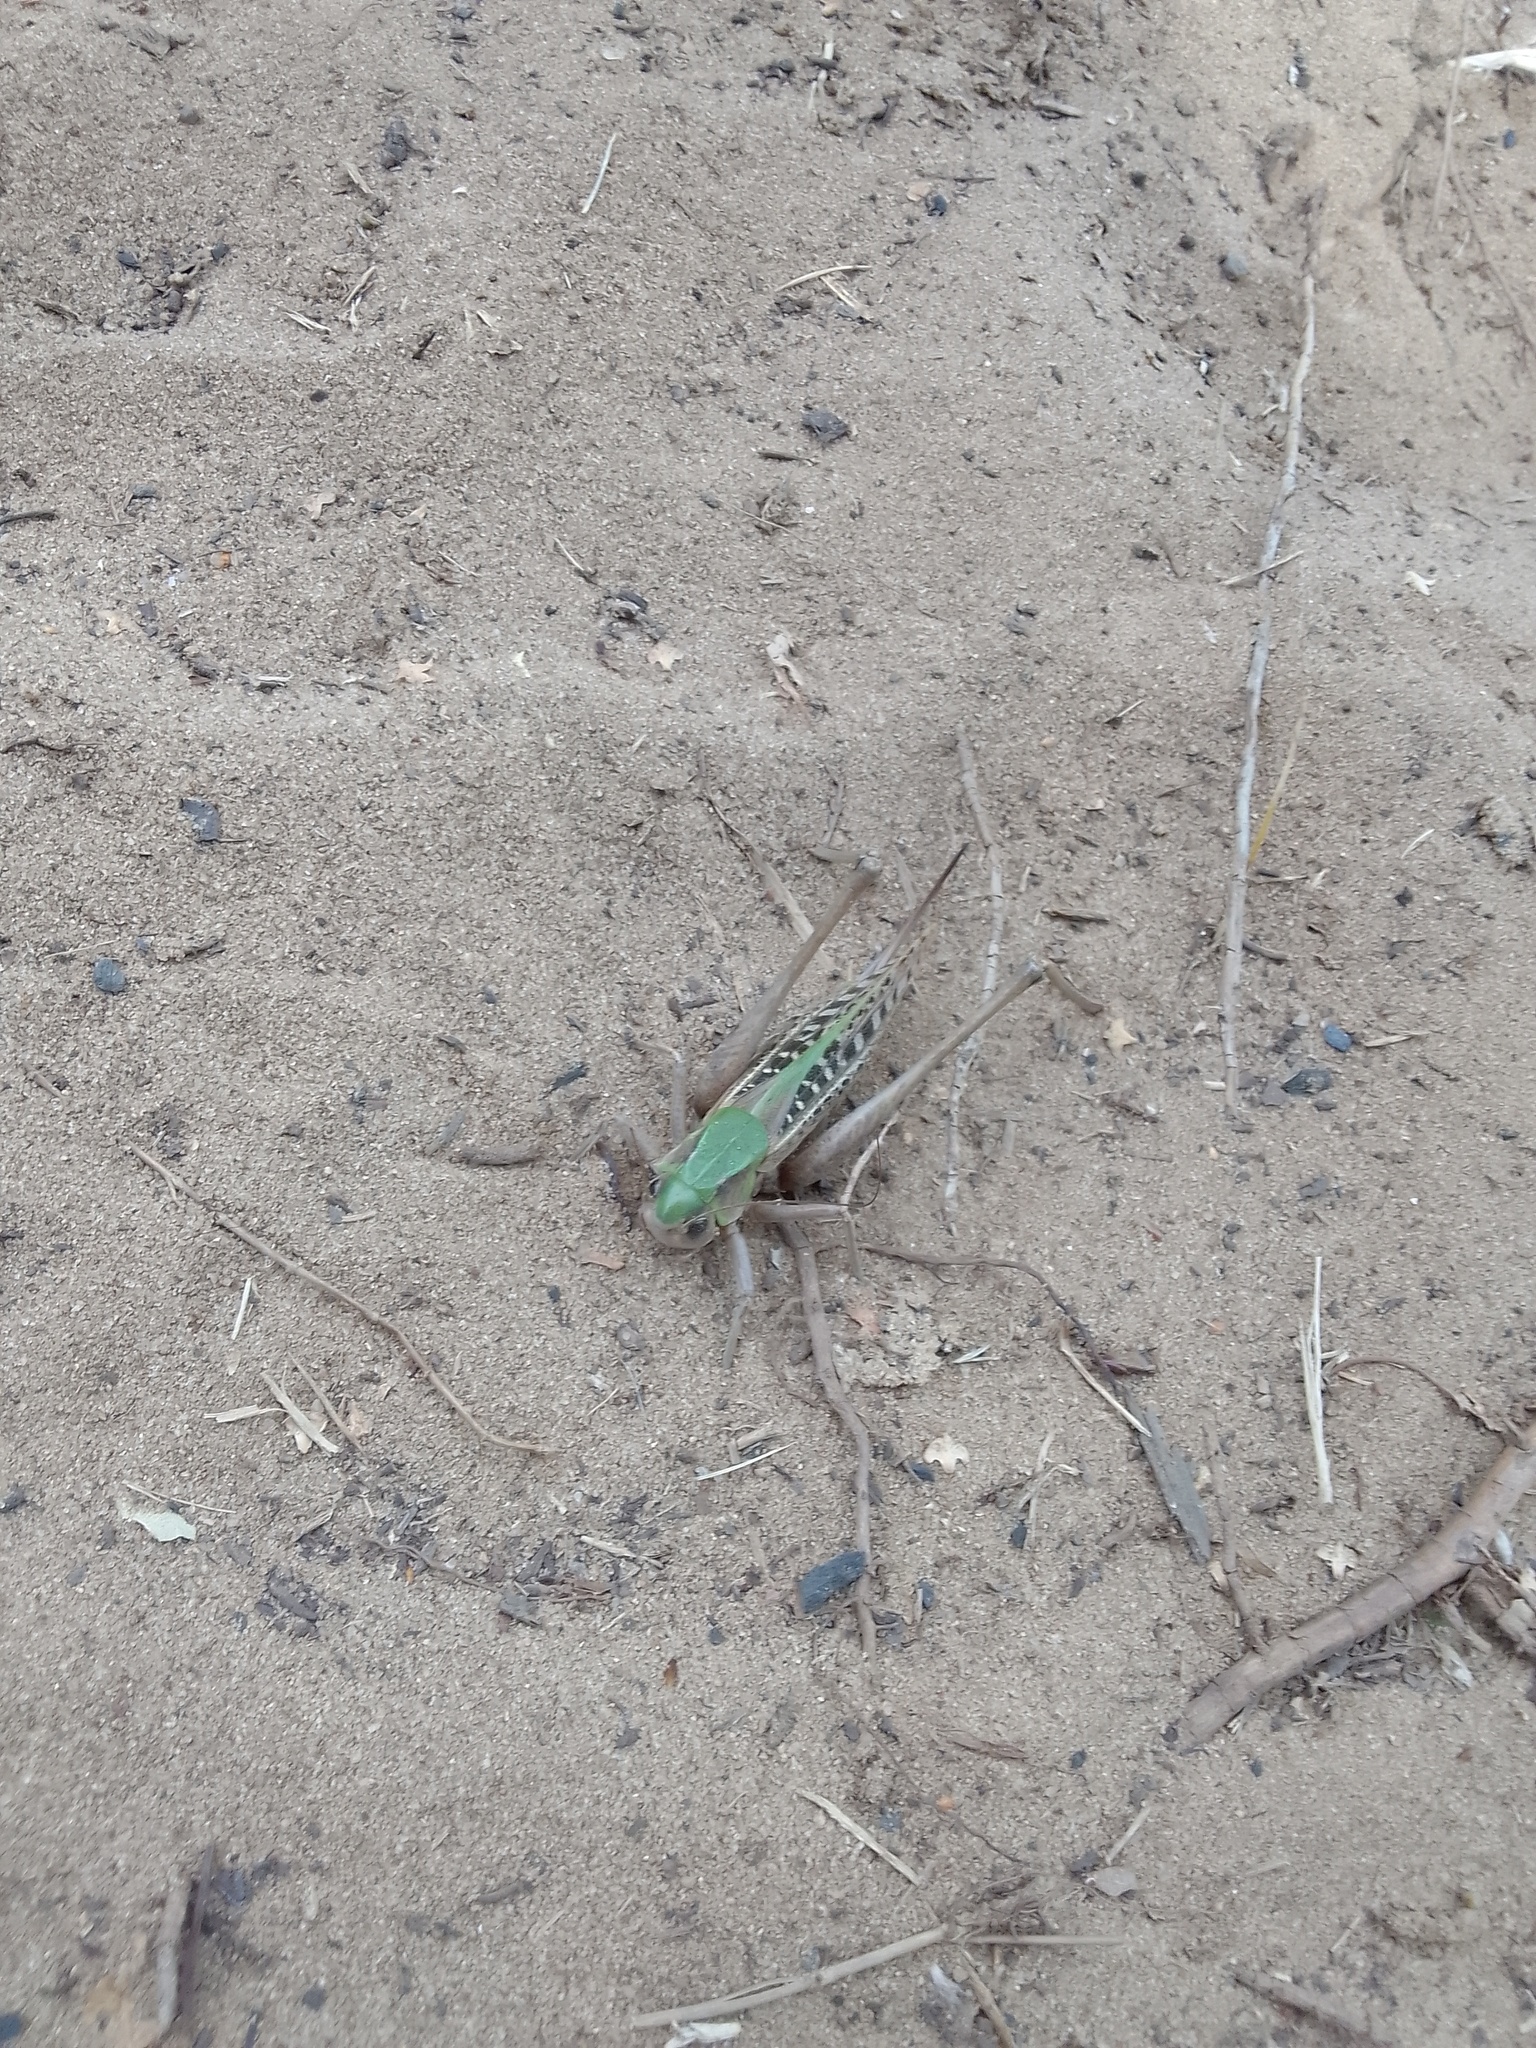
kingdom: Animalia
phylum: Arthropoda
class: Insecta
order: Orthoptera
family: Tettigoniidae
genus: Decticus
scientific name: Decticus verrucivorus
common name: Wart-biter
